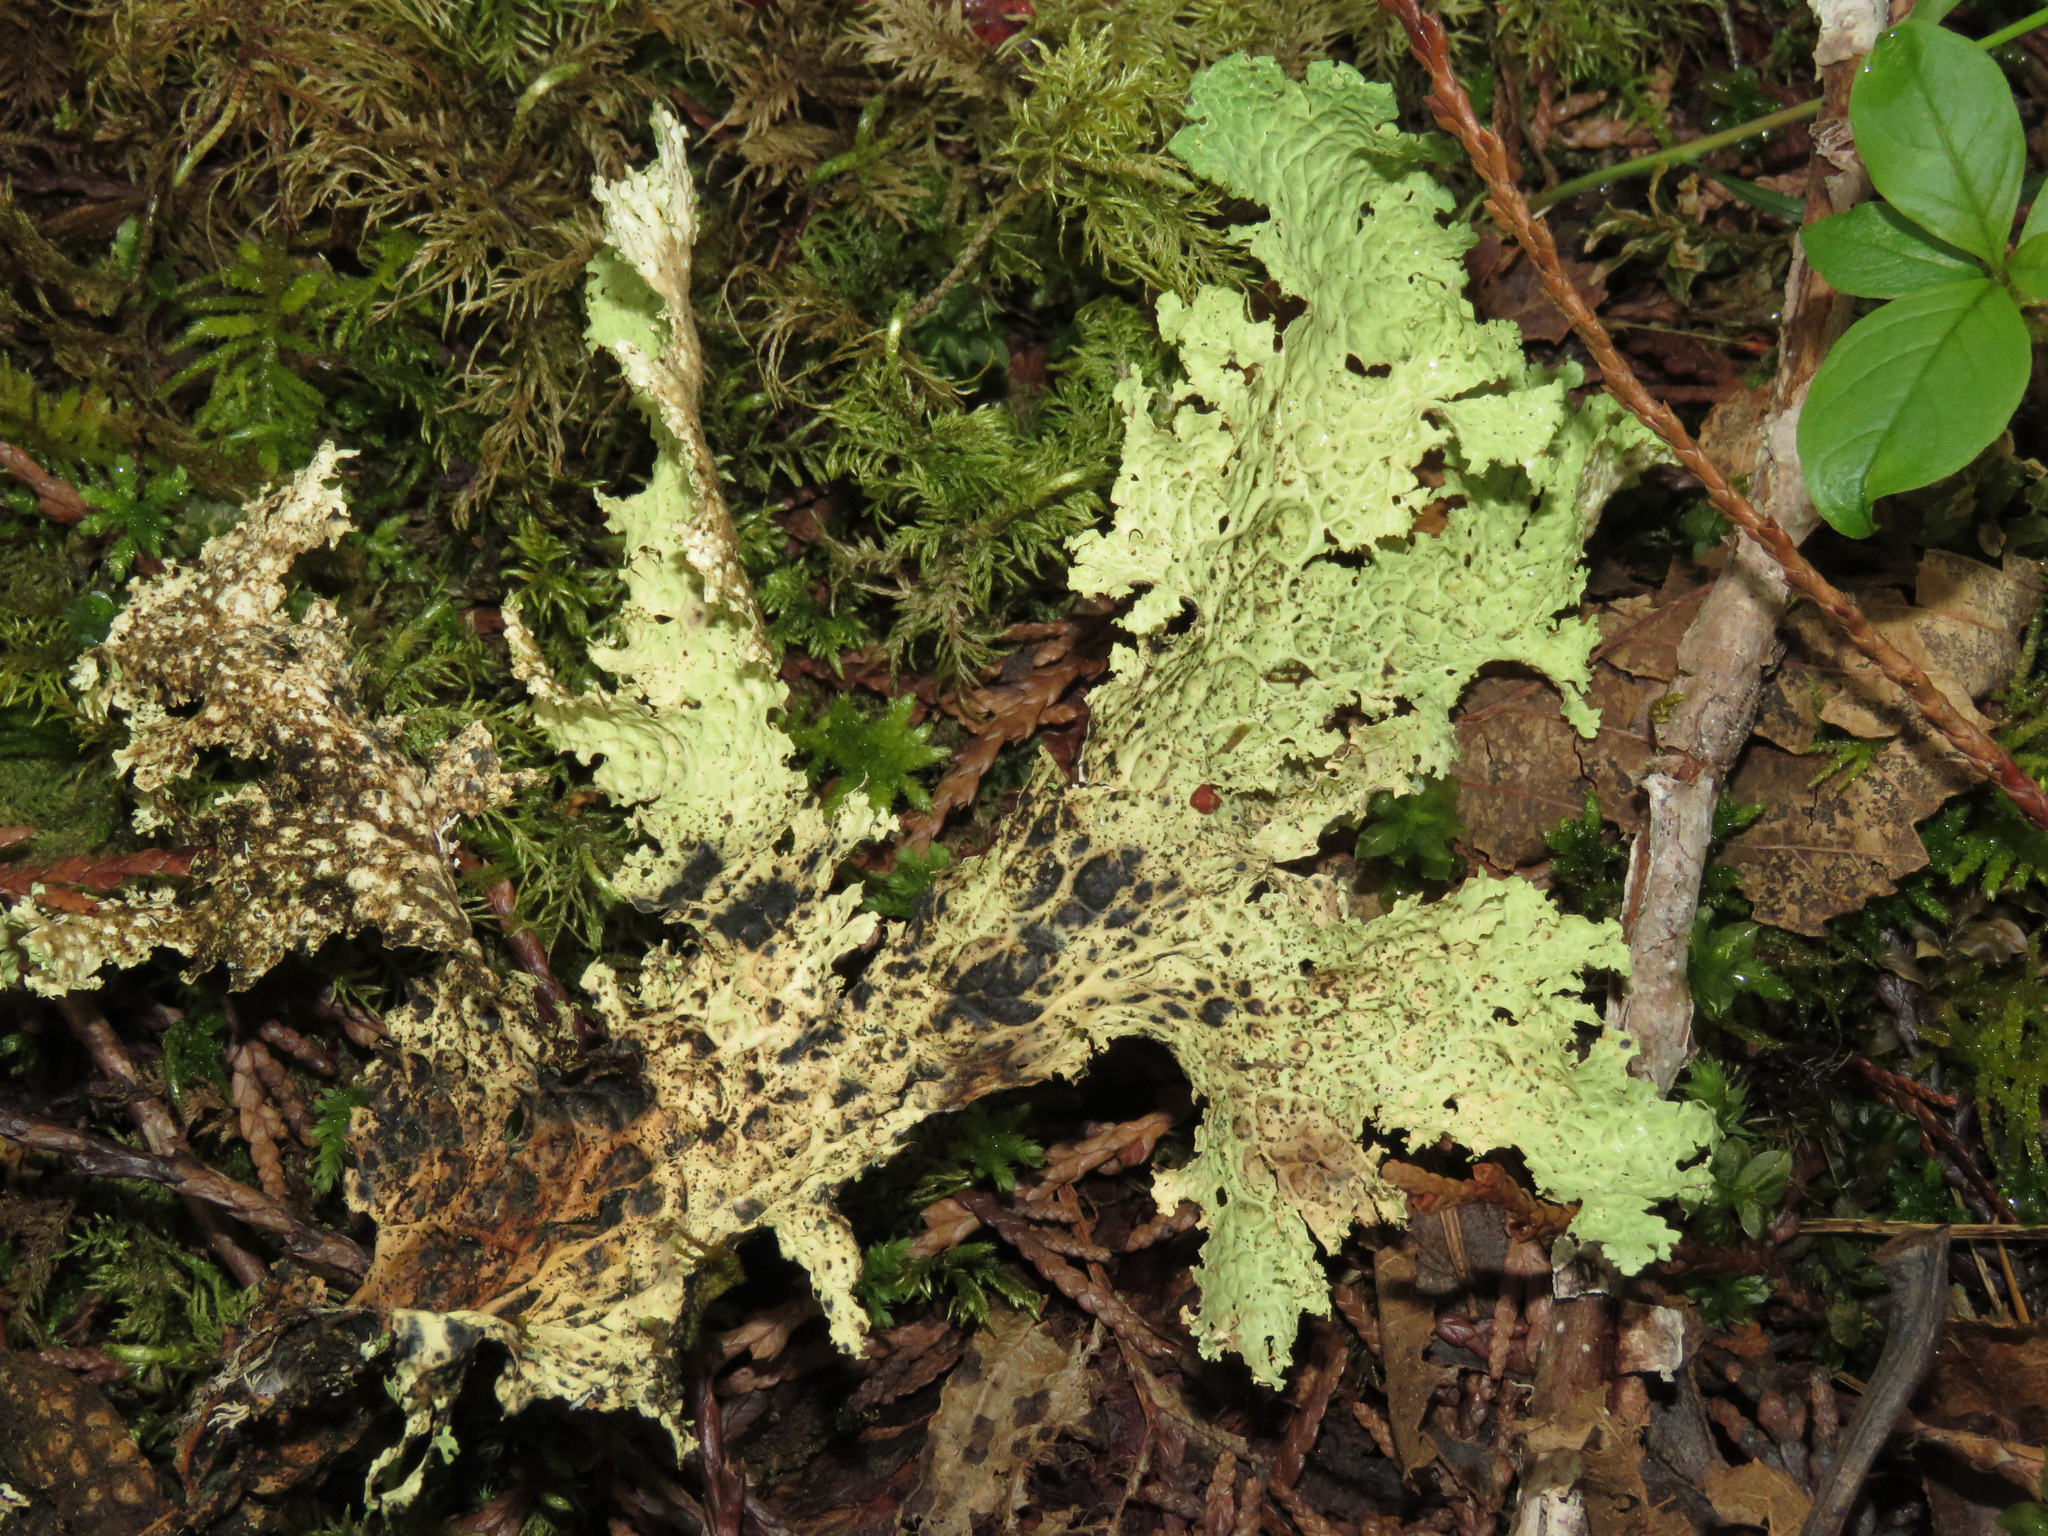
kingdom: Fungi
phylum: Ascomycota
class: Lecanoromycetes
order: Peltigerales
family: Lobariaceae
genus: Lobaria
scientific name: Lobaria oregana
